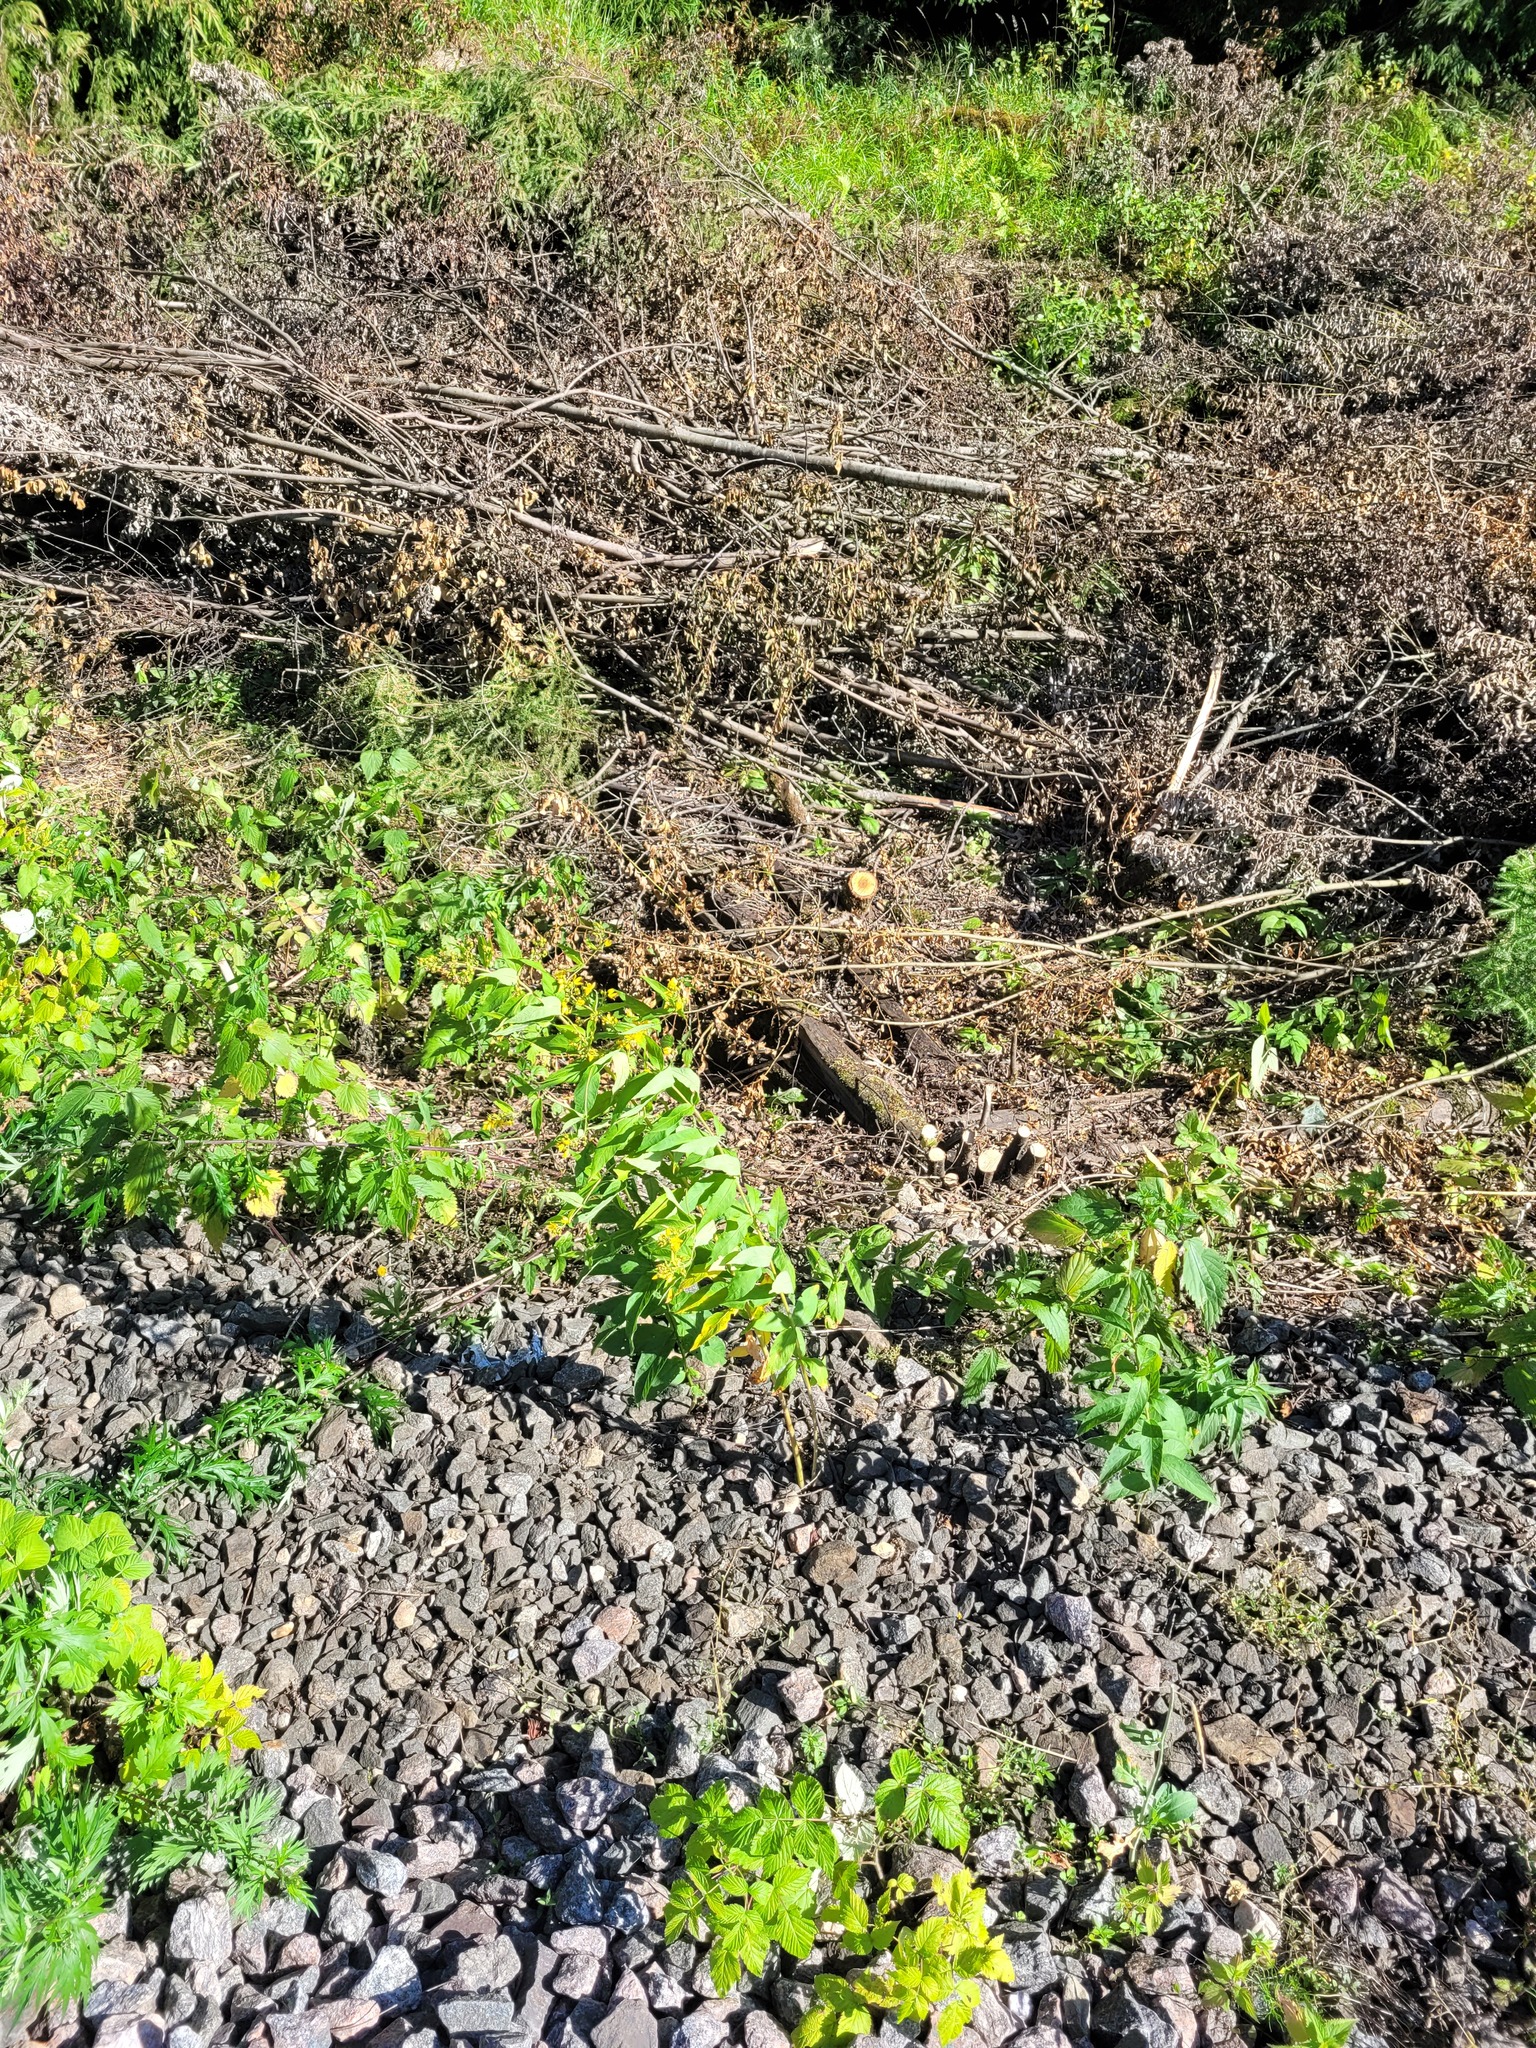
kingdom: Plantae
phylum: Tracheophyta
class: Magnoliopsida
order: Ericales
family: Primulaceae
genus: Lysimachia
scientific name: Lysimachia vulgaris
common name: Yellow loosestrife
